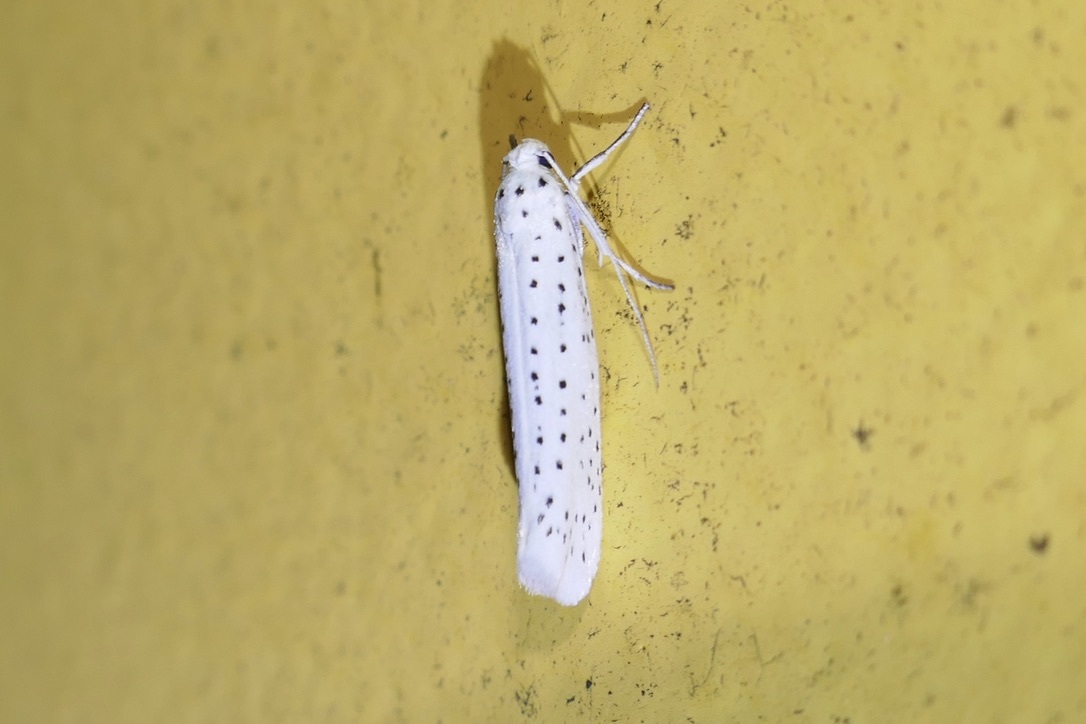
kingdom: Animalia
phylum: Arthropoda
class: Insecta
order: Lepidoptera
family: Yponomeutidae
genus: Yponomeuta
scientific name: Yponomeuta evonymella
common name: Bird-cherry ermine
